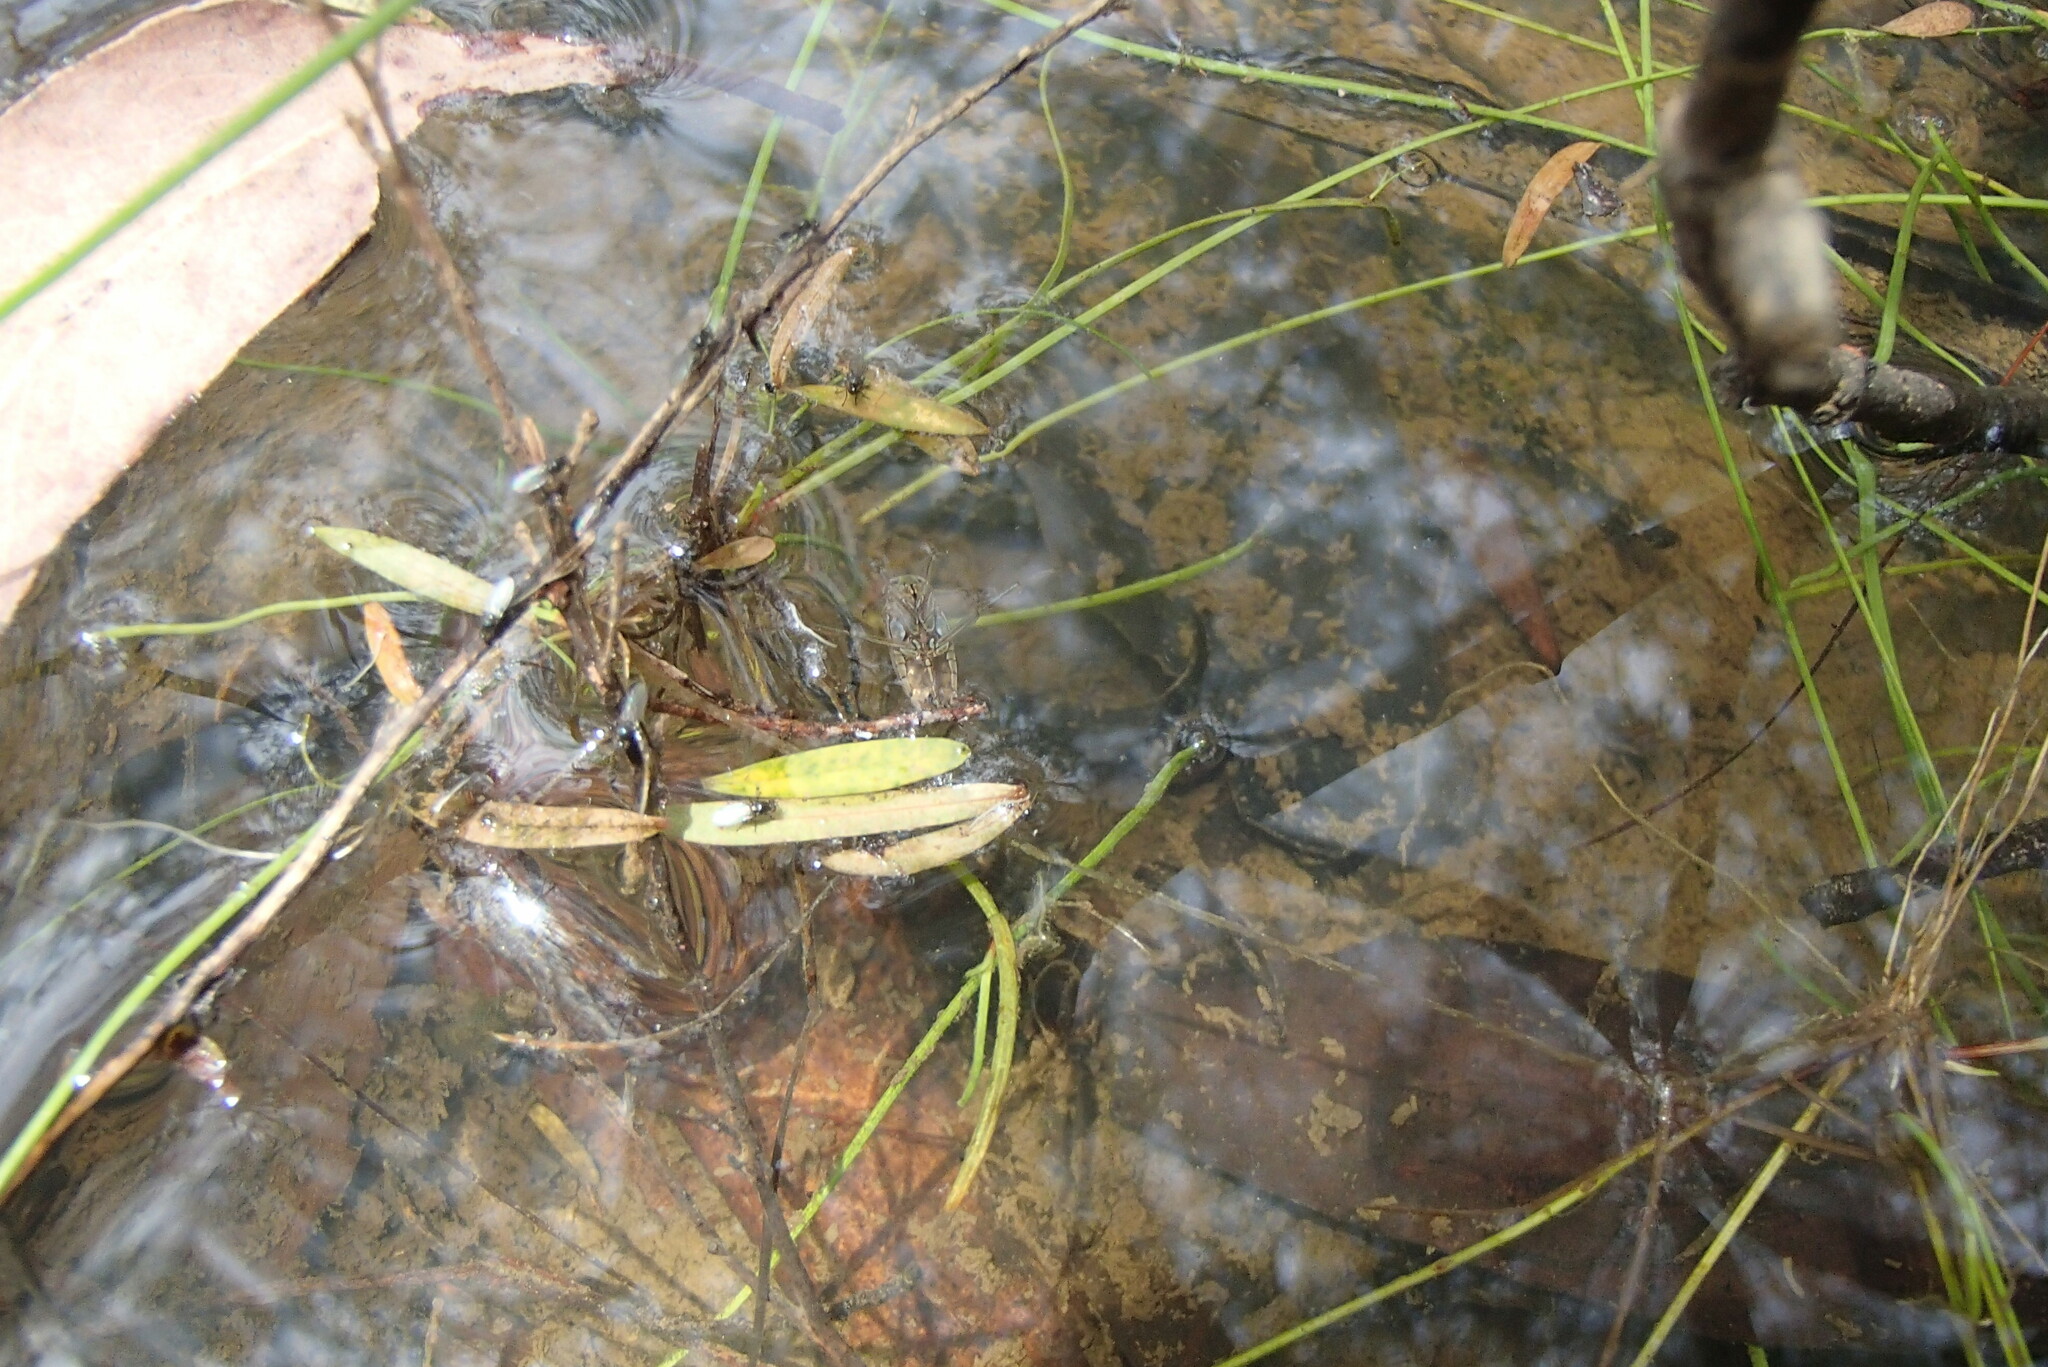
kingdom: Animalia
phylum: Arthropoda
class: Insecta
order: Hemiptera
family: Notonectidae
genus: Enithares
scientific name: Enithares
